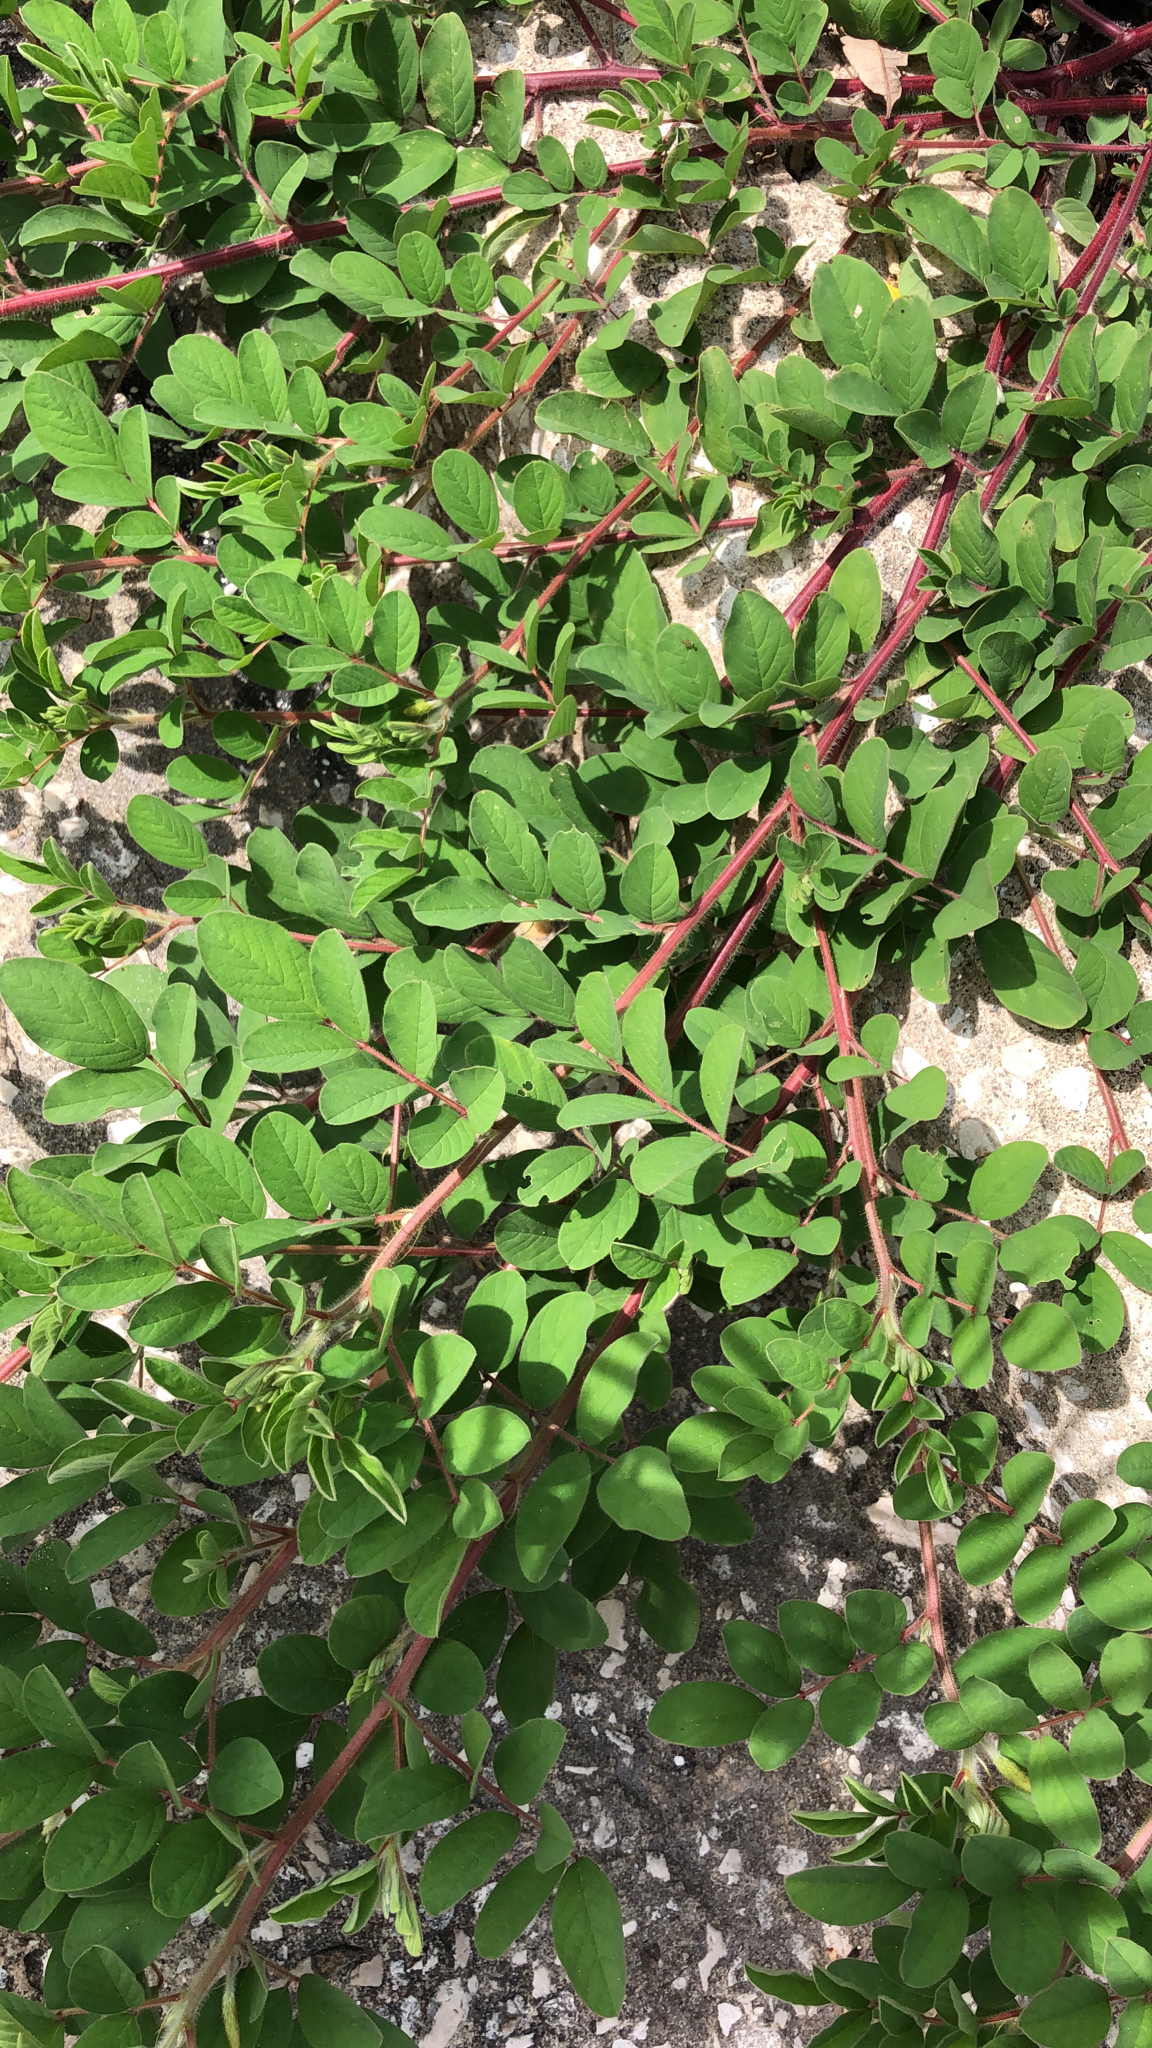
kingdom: Plantae
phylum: Tracheophyta
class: Magnoliopsida
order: Fabales
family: Fabaceae
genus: Indigofera
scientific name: Indigofera hirsuta
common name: Hairy indigo
